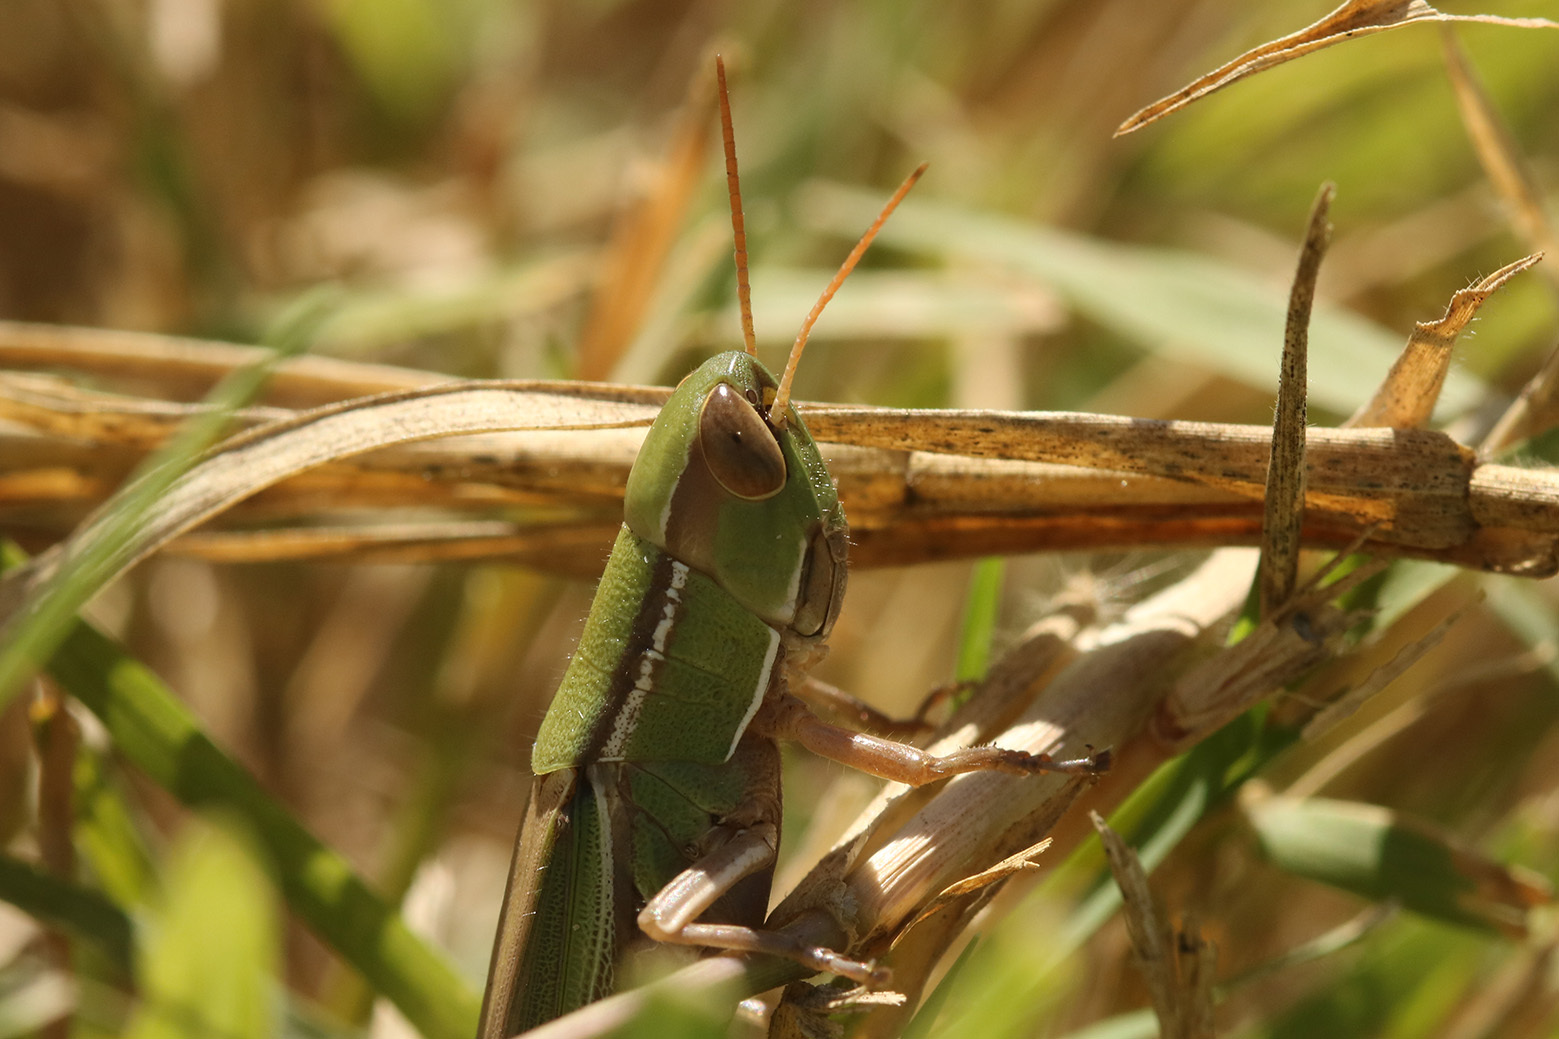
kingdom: Animalia
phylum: Arthropoda
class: Insecta
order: Orthoptera
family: Acrididae
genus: Aleuas
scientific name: Aleuas lineatus
